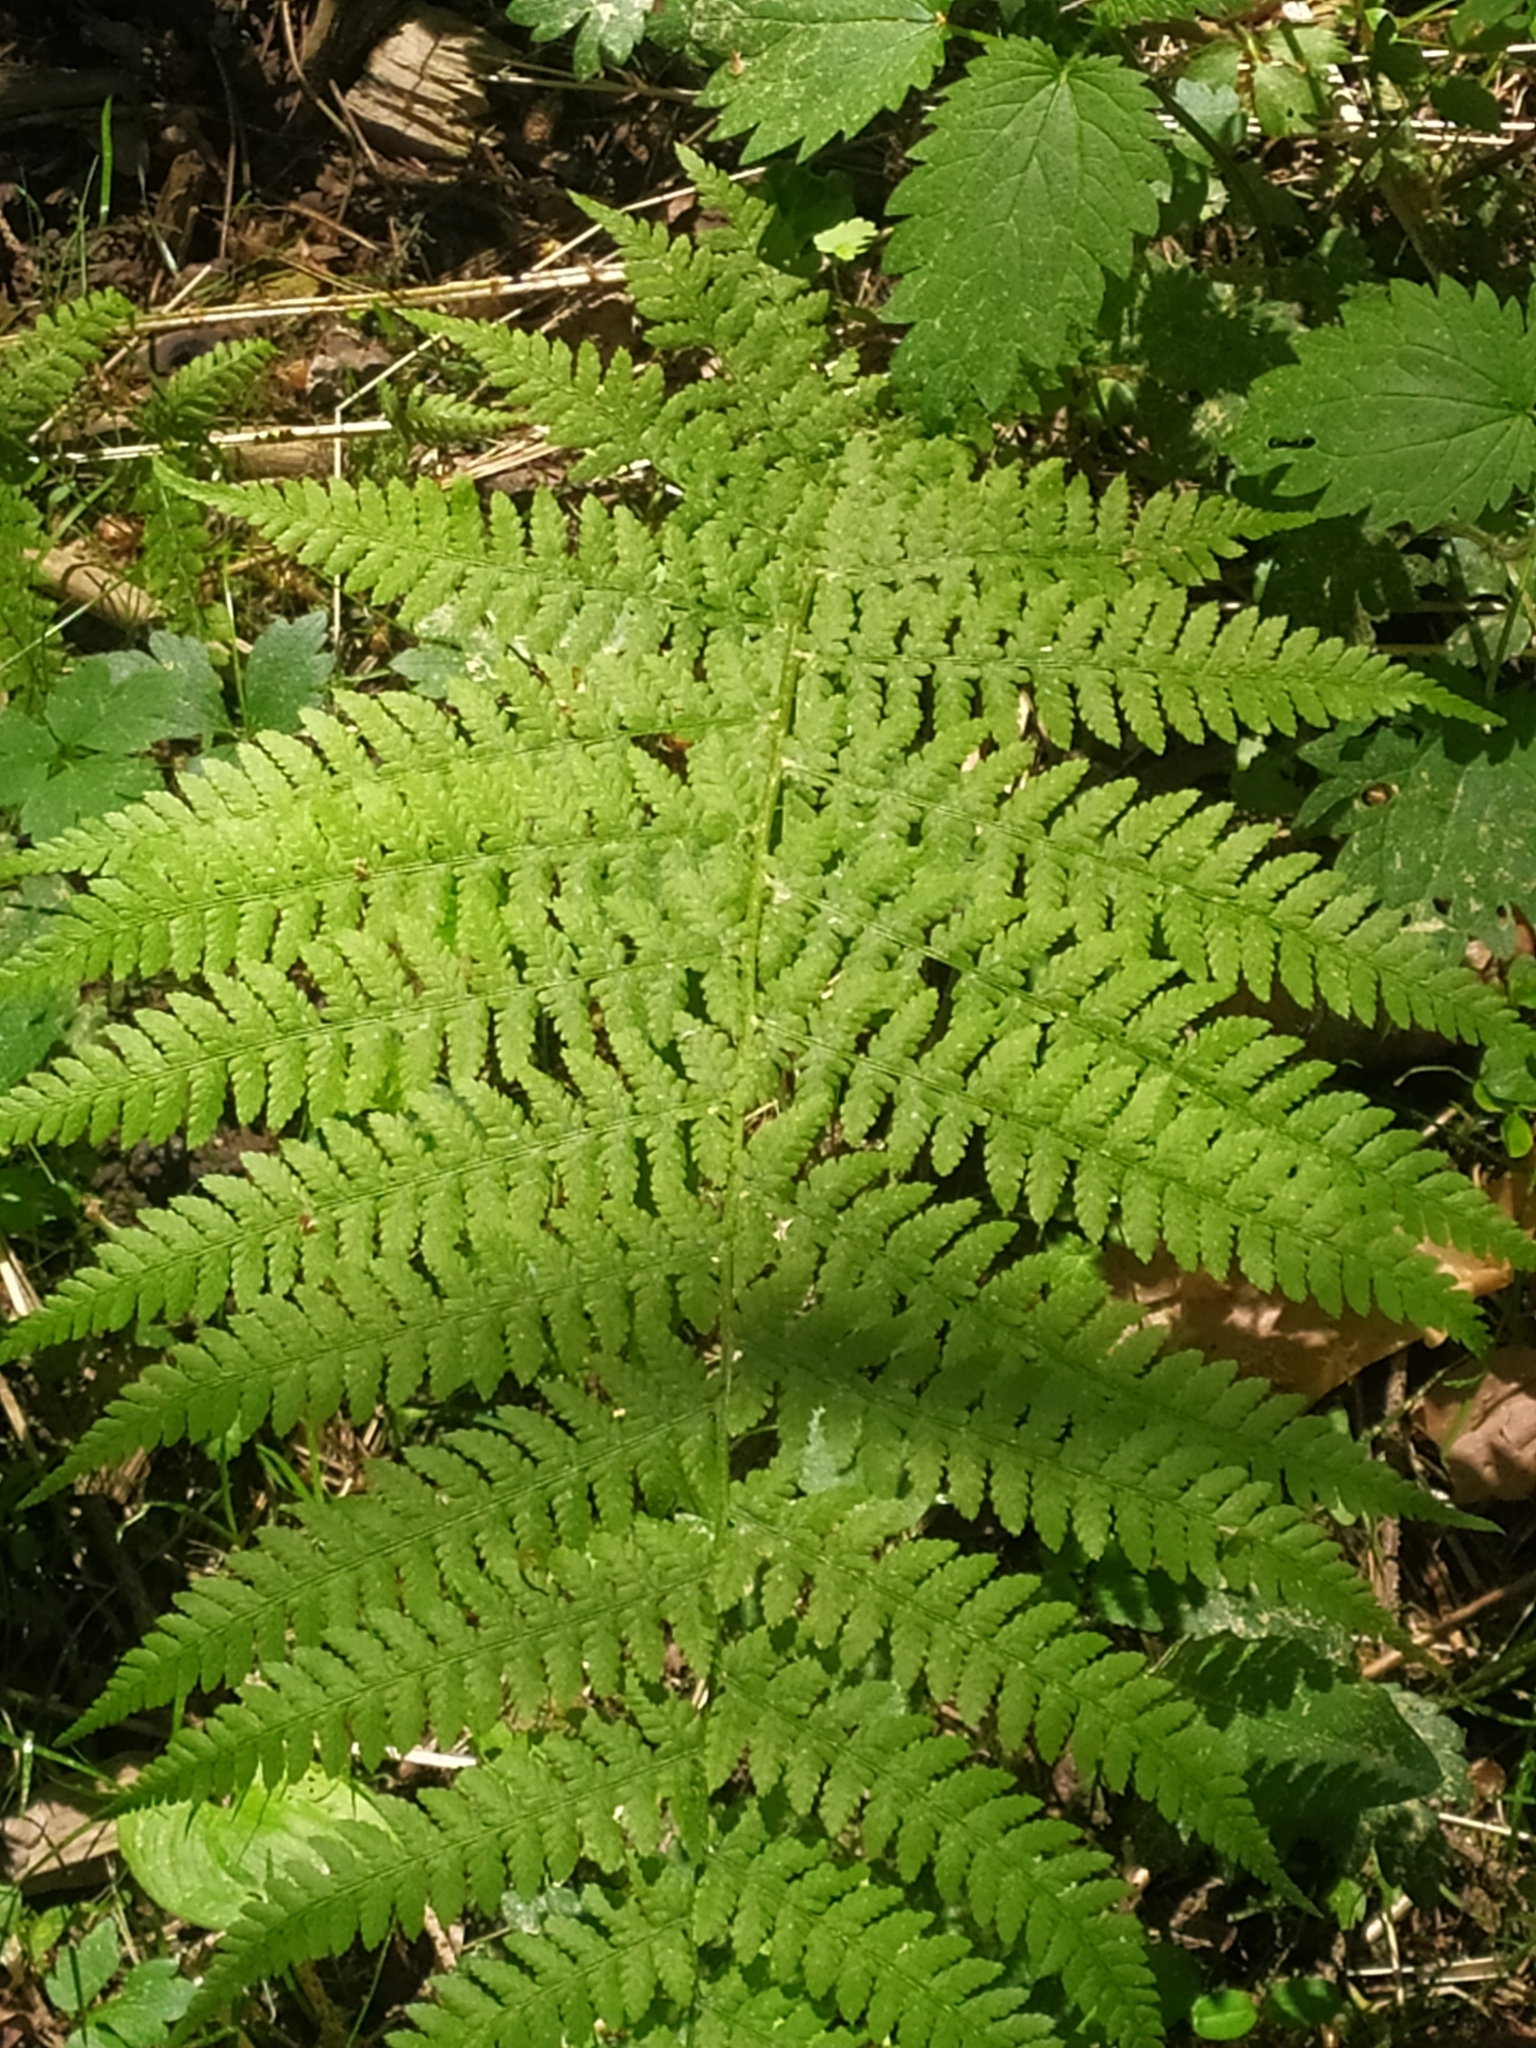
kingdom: Plantae
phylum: Tracheophyta
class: Polypodiopsida
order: Polypodiales
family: Athyriaceae
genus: Athyrium
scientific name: Athyrium filix-femina
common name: Lady fern
